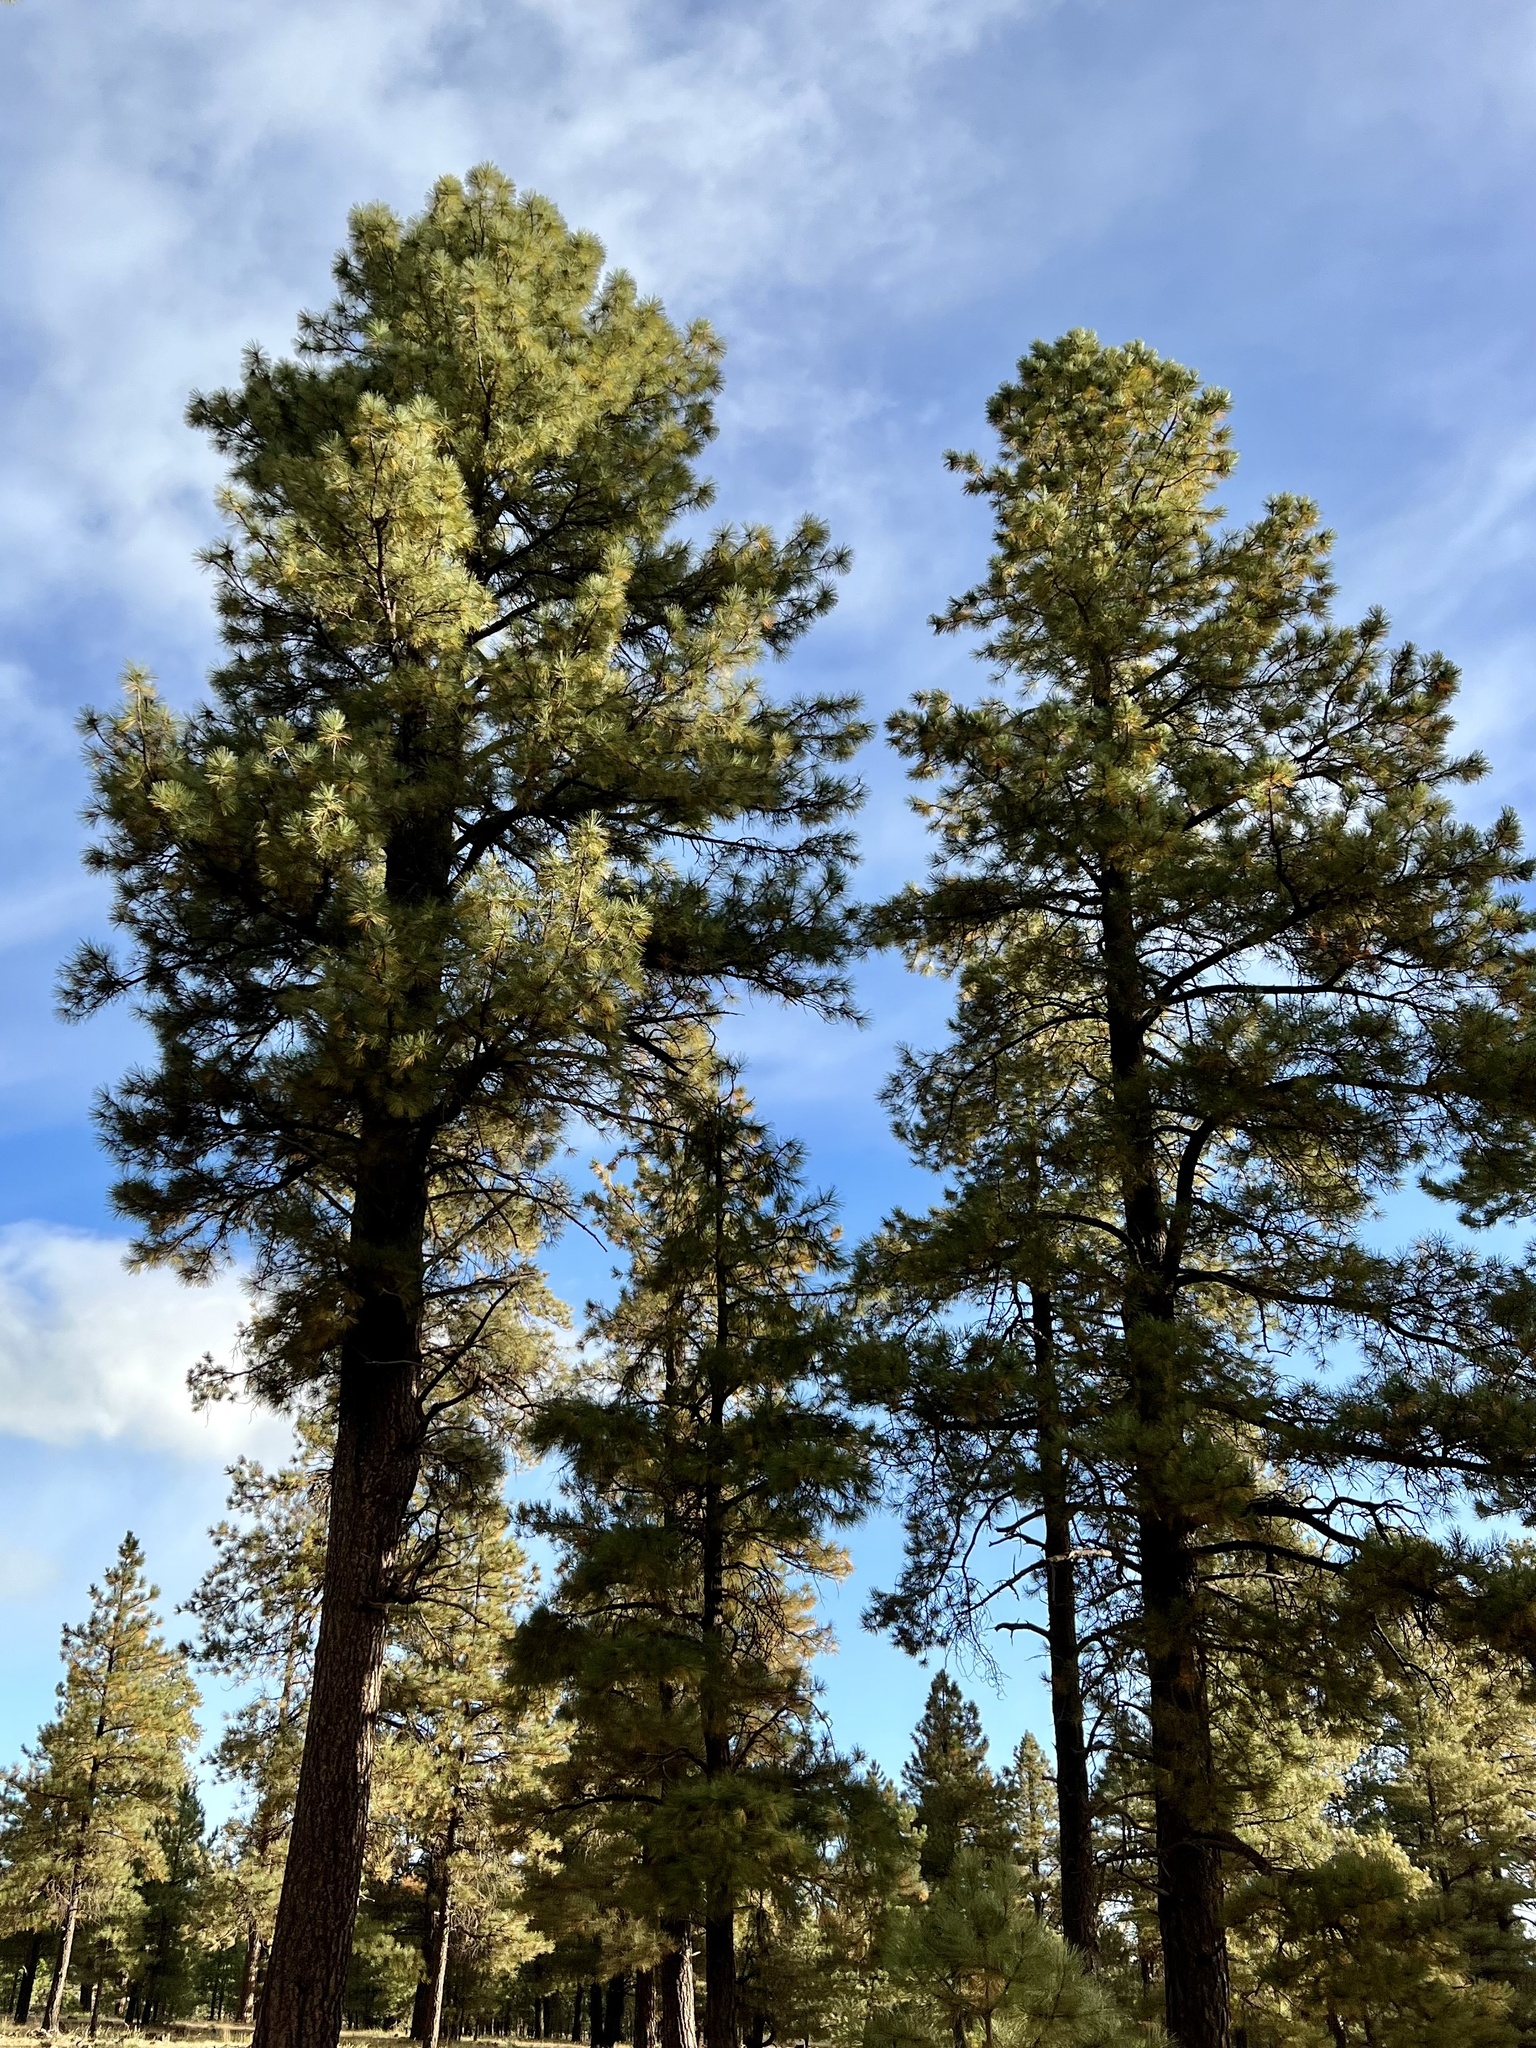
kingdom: Plantae
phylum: Tracheophyta
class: Pinopsida
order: Pinales
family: Pinaceae
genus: Pinus
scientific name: Pinus ponderosa
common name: Western yellow-pine
